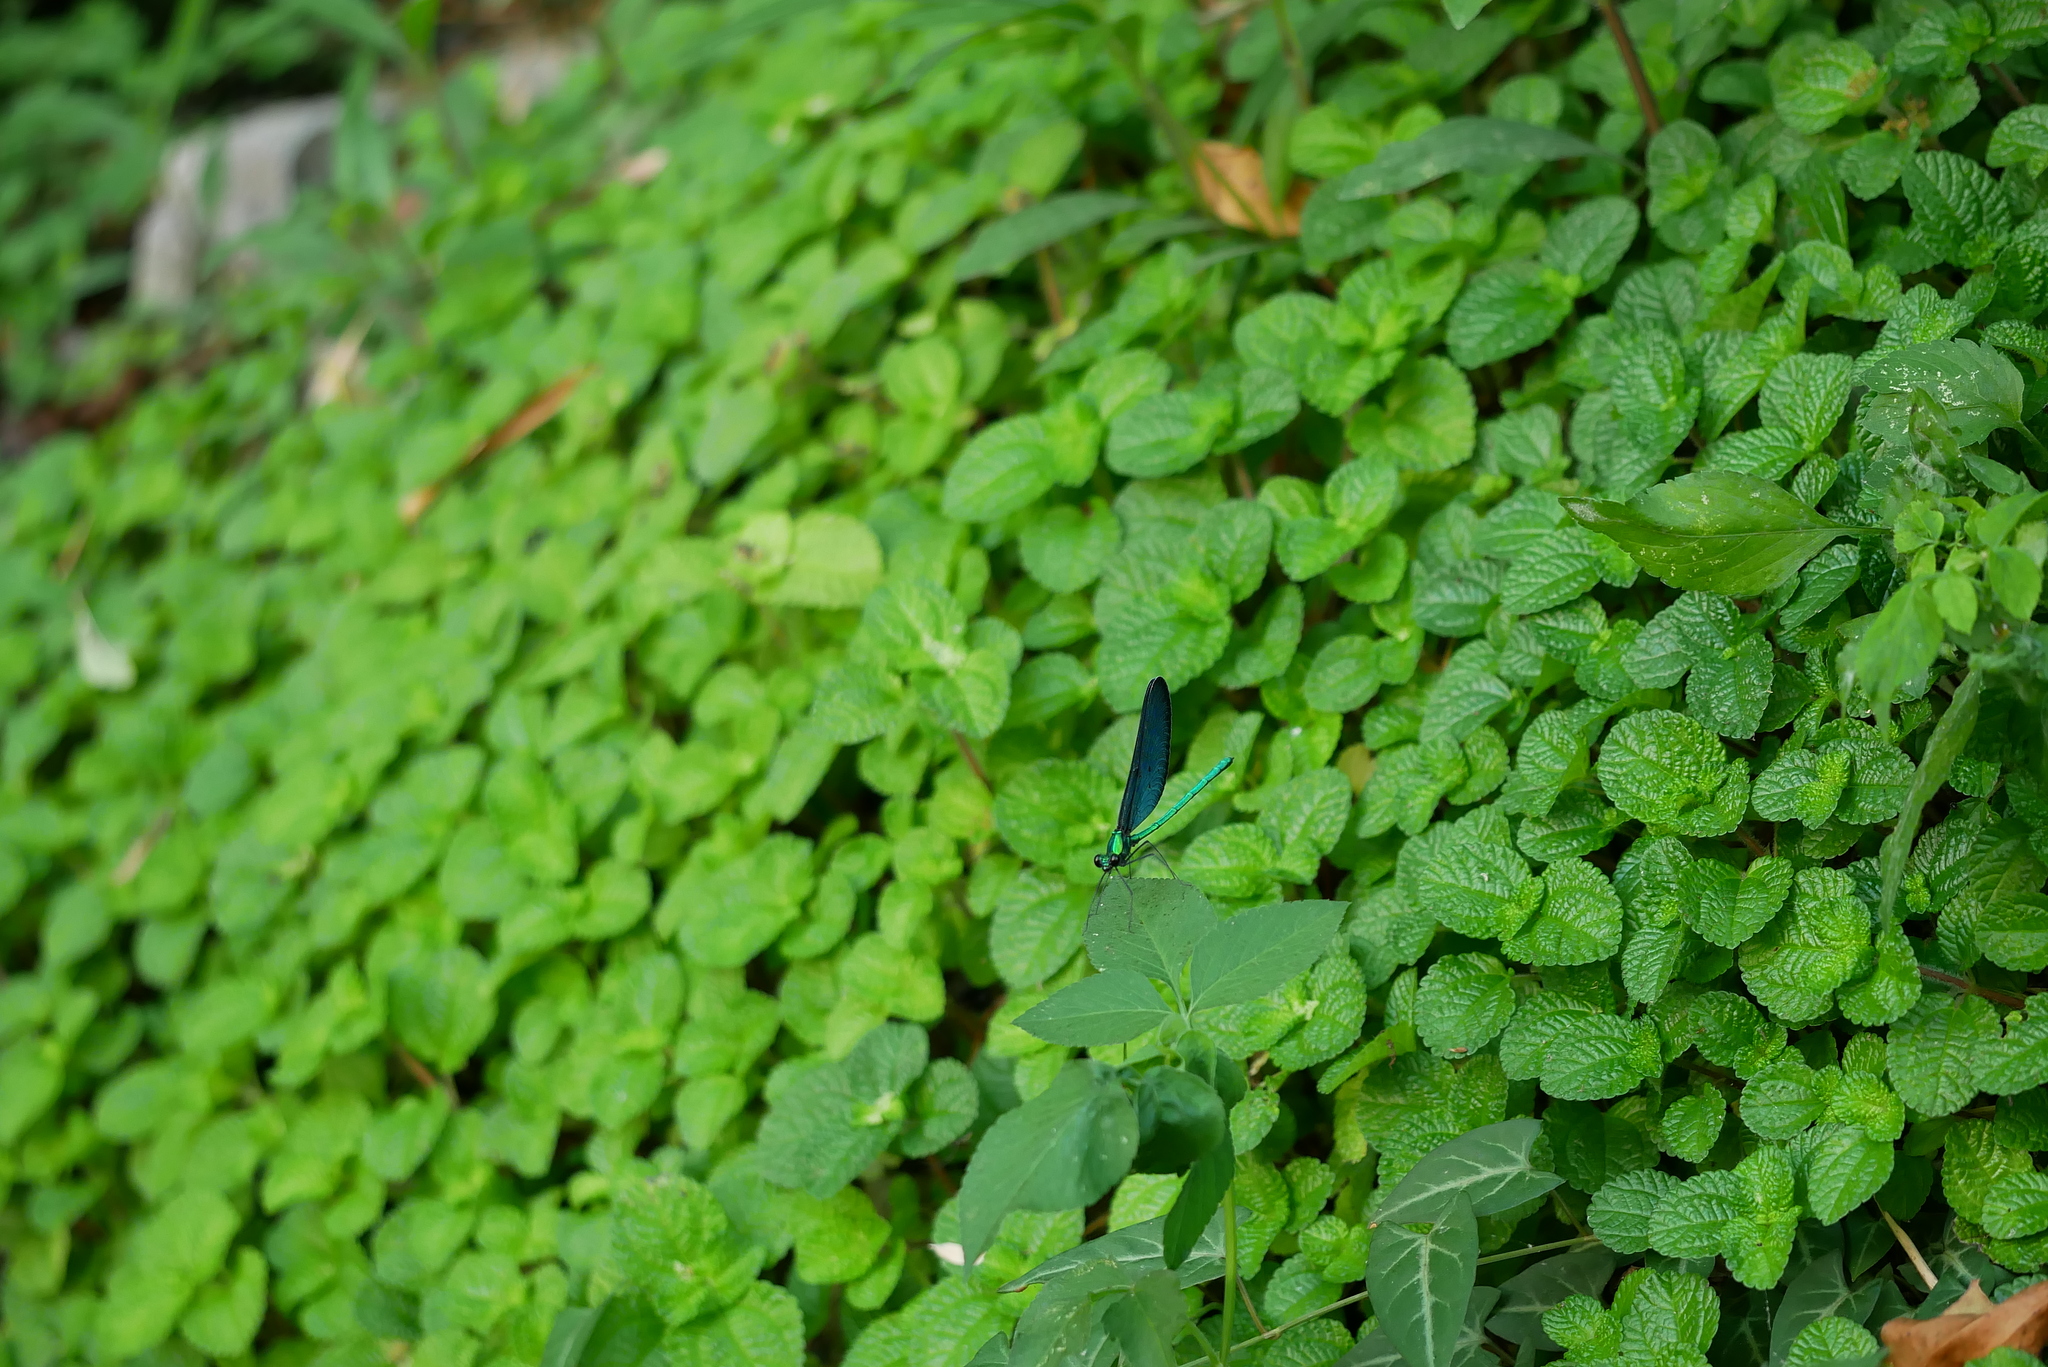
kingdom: Animalia
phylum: Arthropoda
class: Insecta
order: Odonata
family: Calopterygidae
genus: Matrona
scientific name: Matrona cyanoptera
